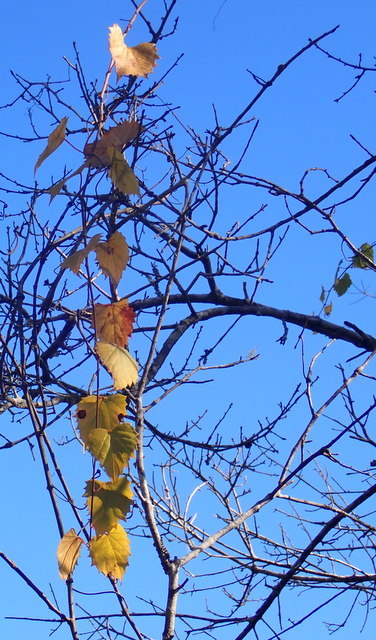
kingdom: Plantae
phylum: Tracheophyta
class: Magnoliopsida
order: Vitales
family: Vitaceae
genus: Vitis
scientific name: Vitis rotundifolia
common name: Muscadine grape
